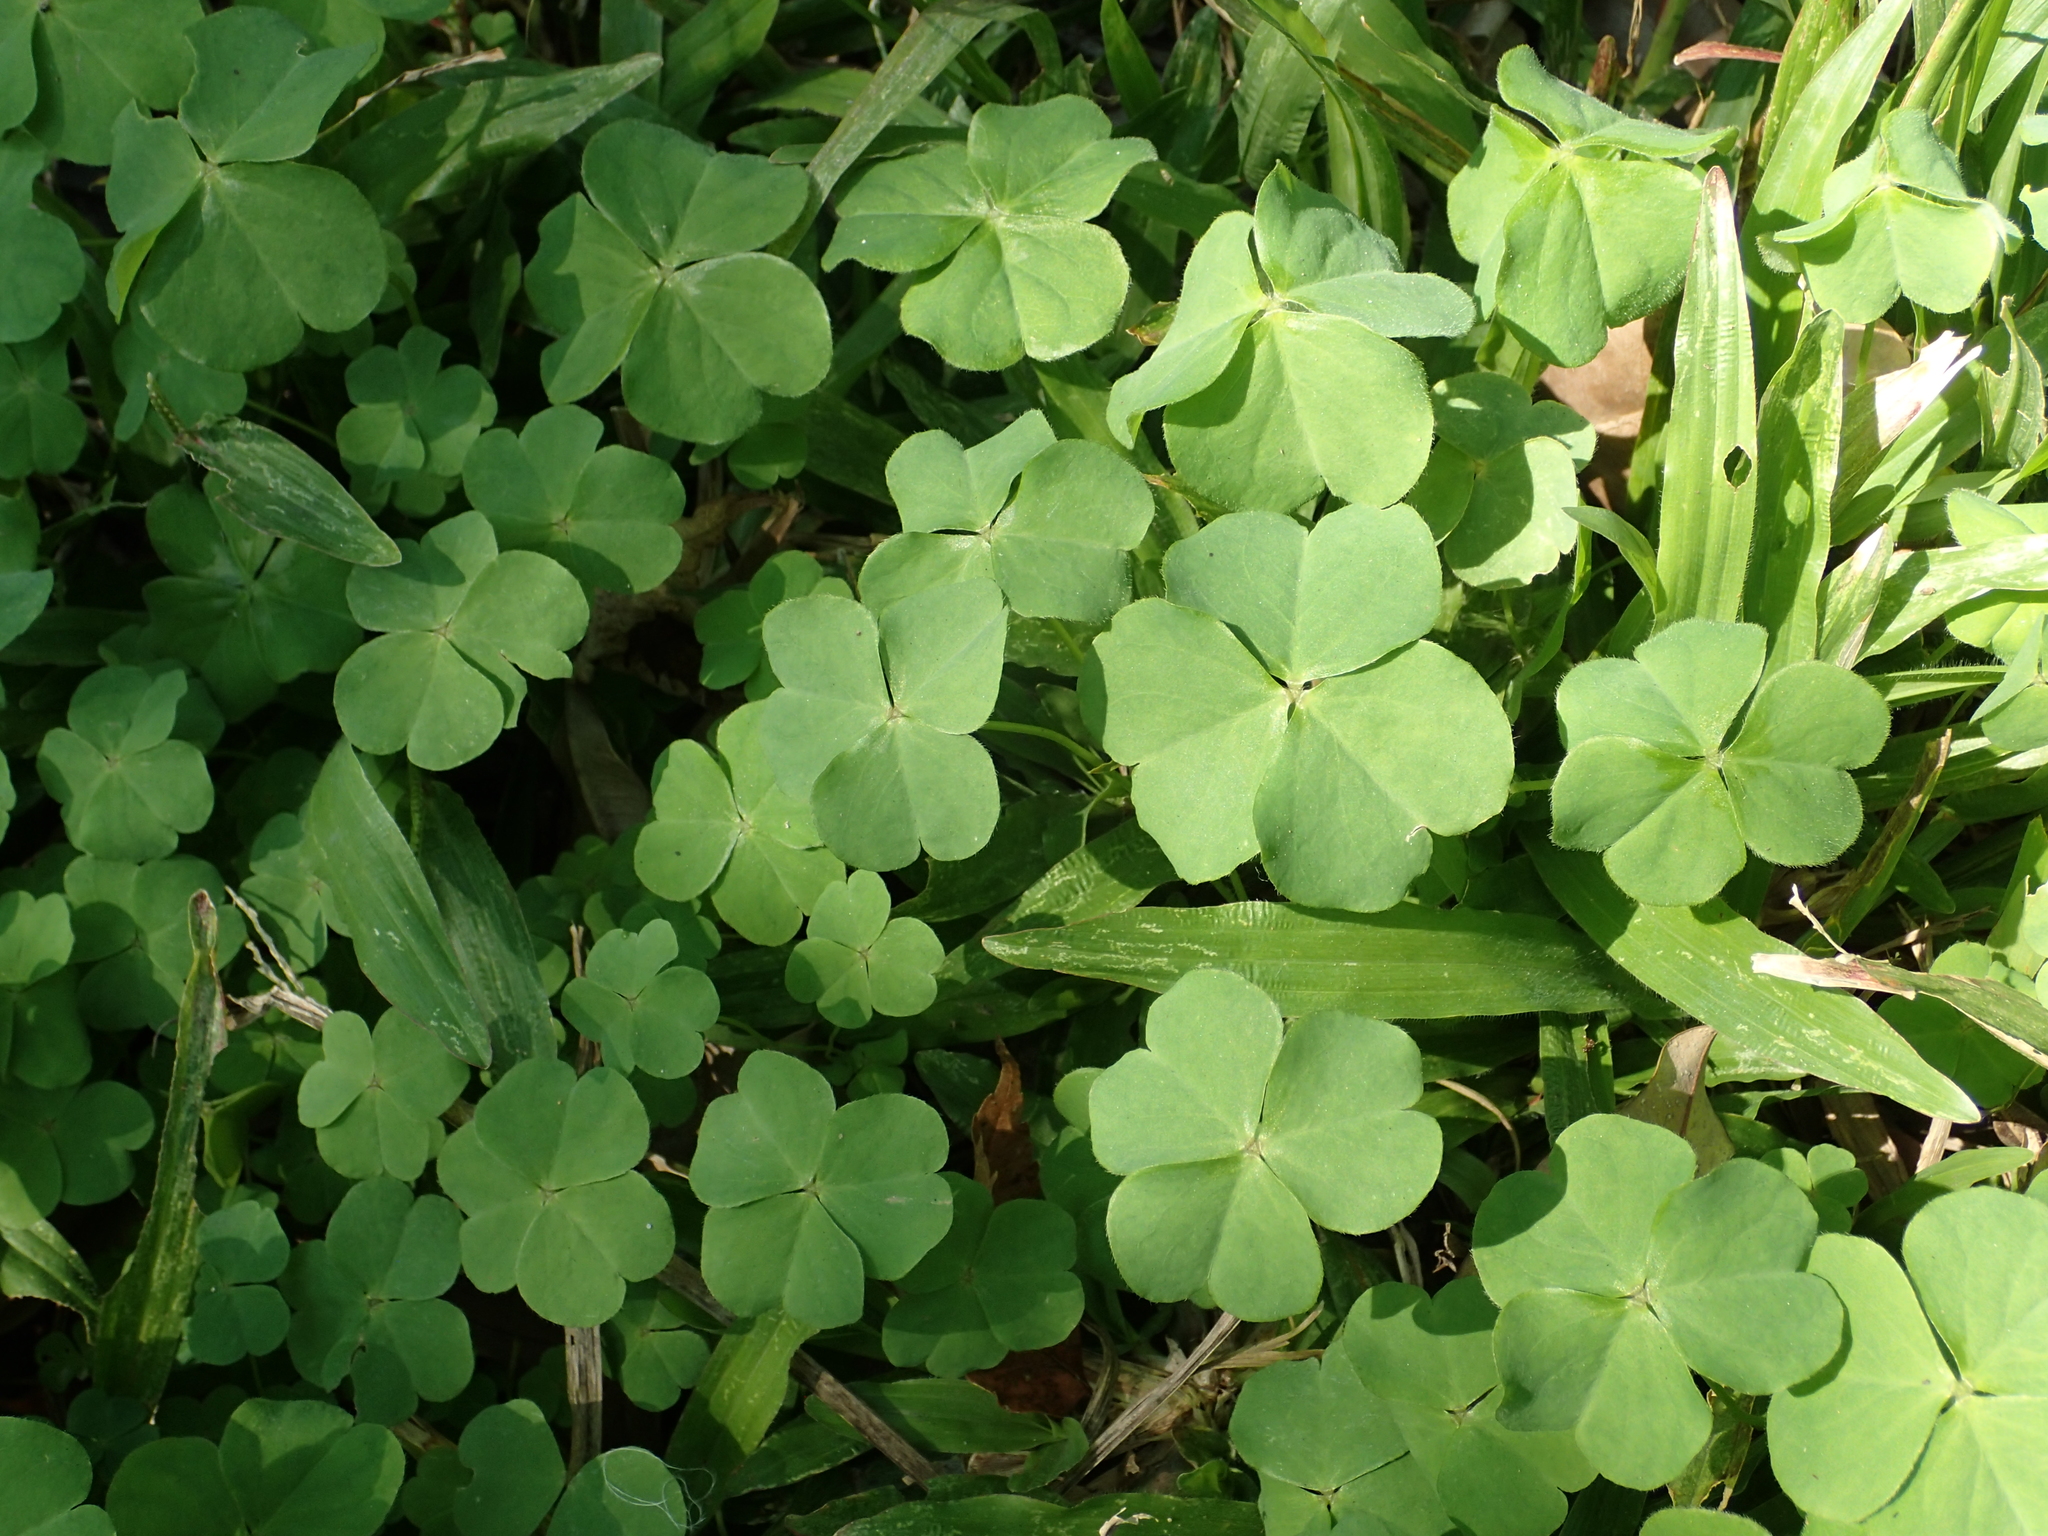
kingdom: Plantae
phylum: Tracheophyta
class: Magnoliopsida
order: Oxalidales
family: Oxalidaceae
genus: Oxalis
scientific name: Oxalis debilis
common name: Large-flowered pink-sorrel
